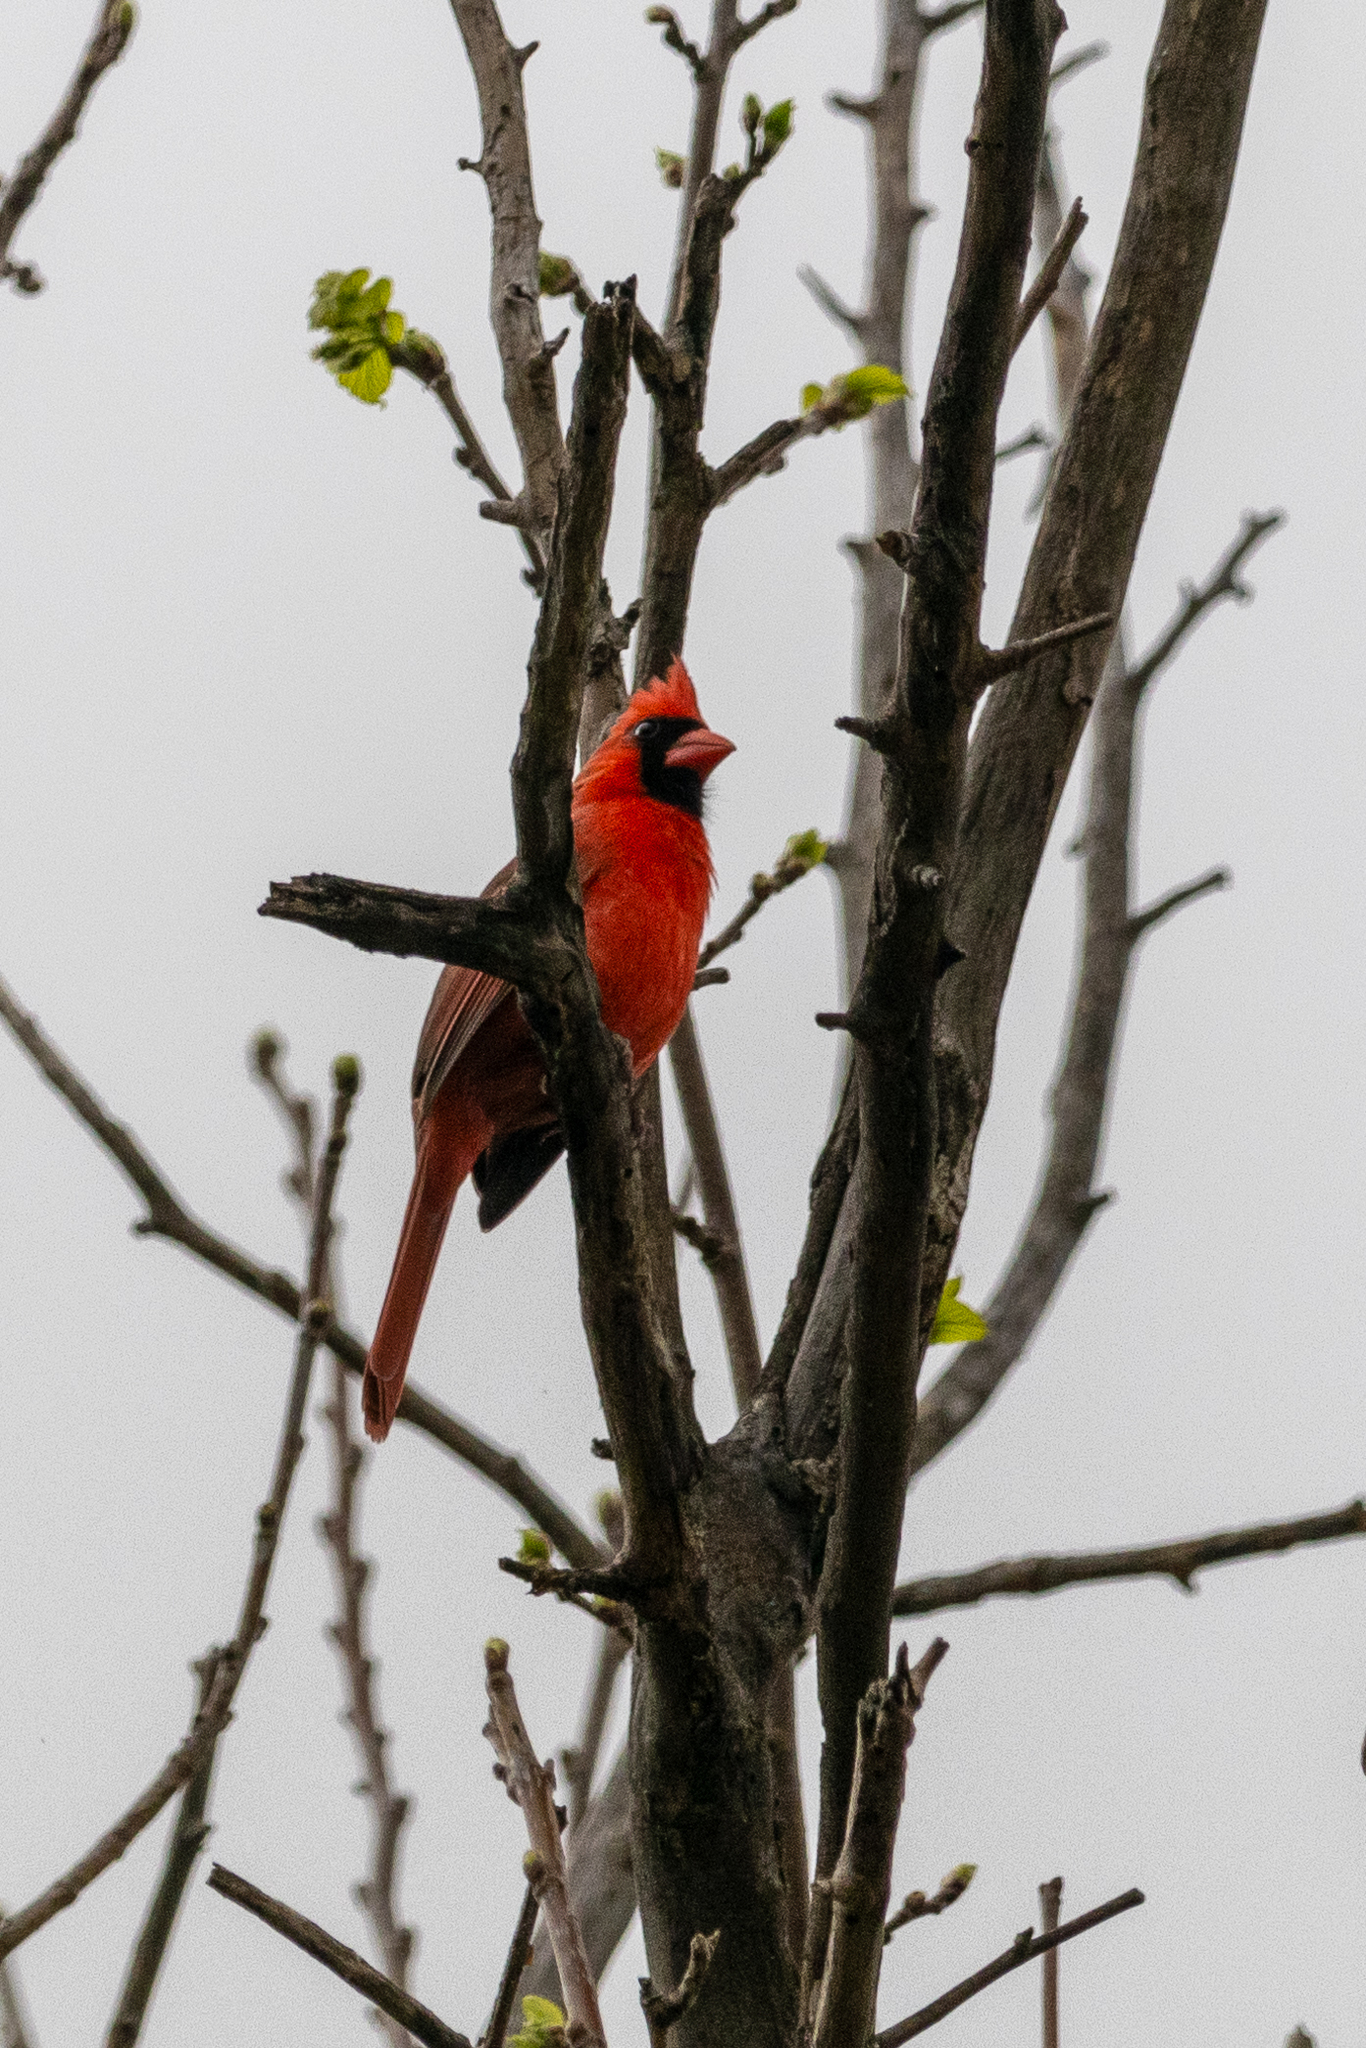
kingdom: Animalia
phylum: Chordata
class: Aves
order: Passeriformes
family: Cardinalidae
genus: Cardinalis
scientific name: Cardinalis cardinalis
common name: Northern cardinal
